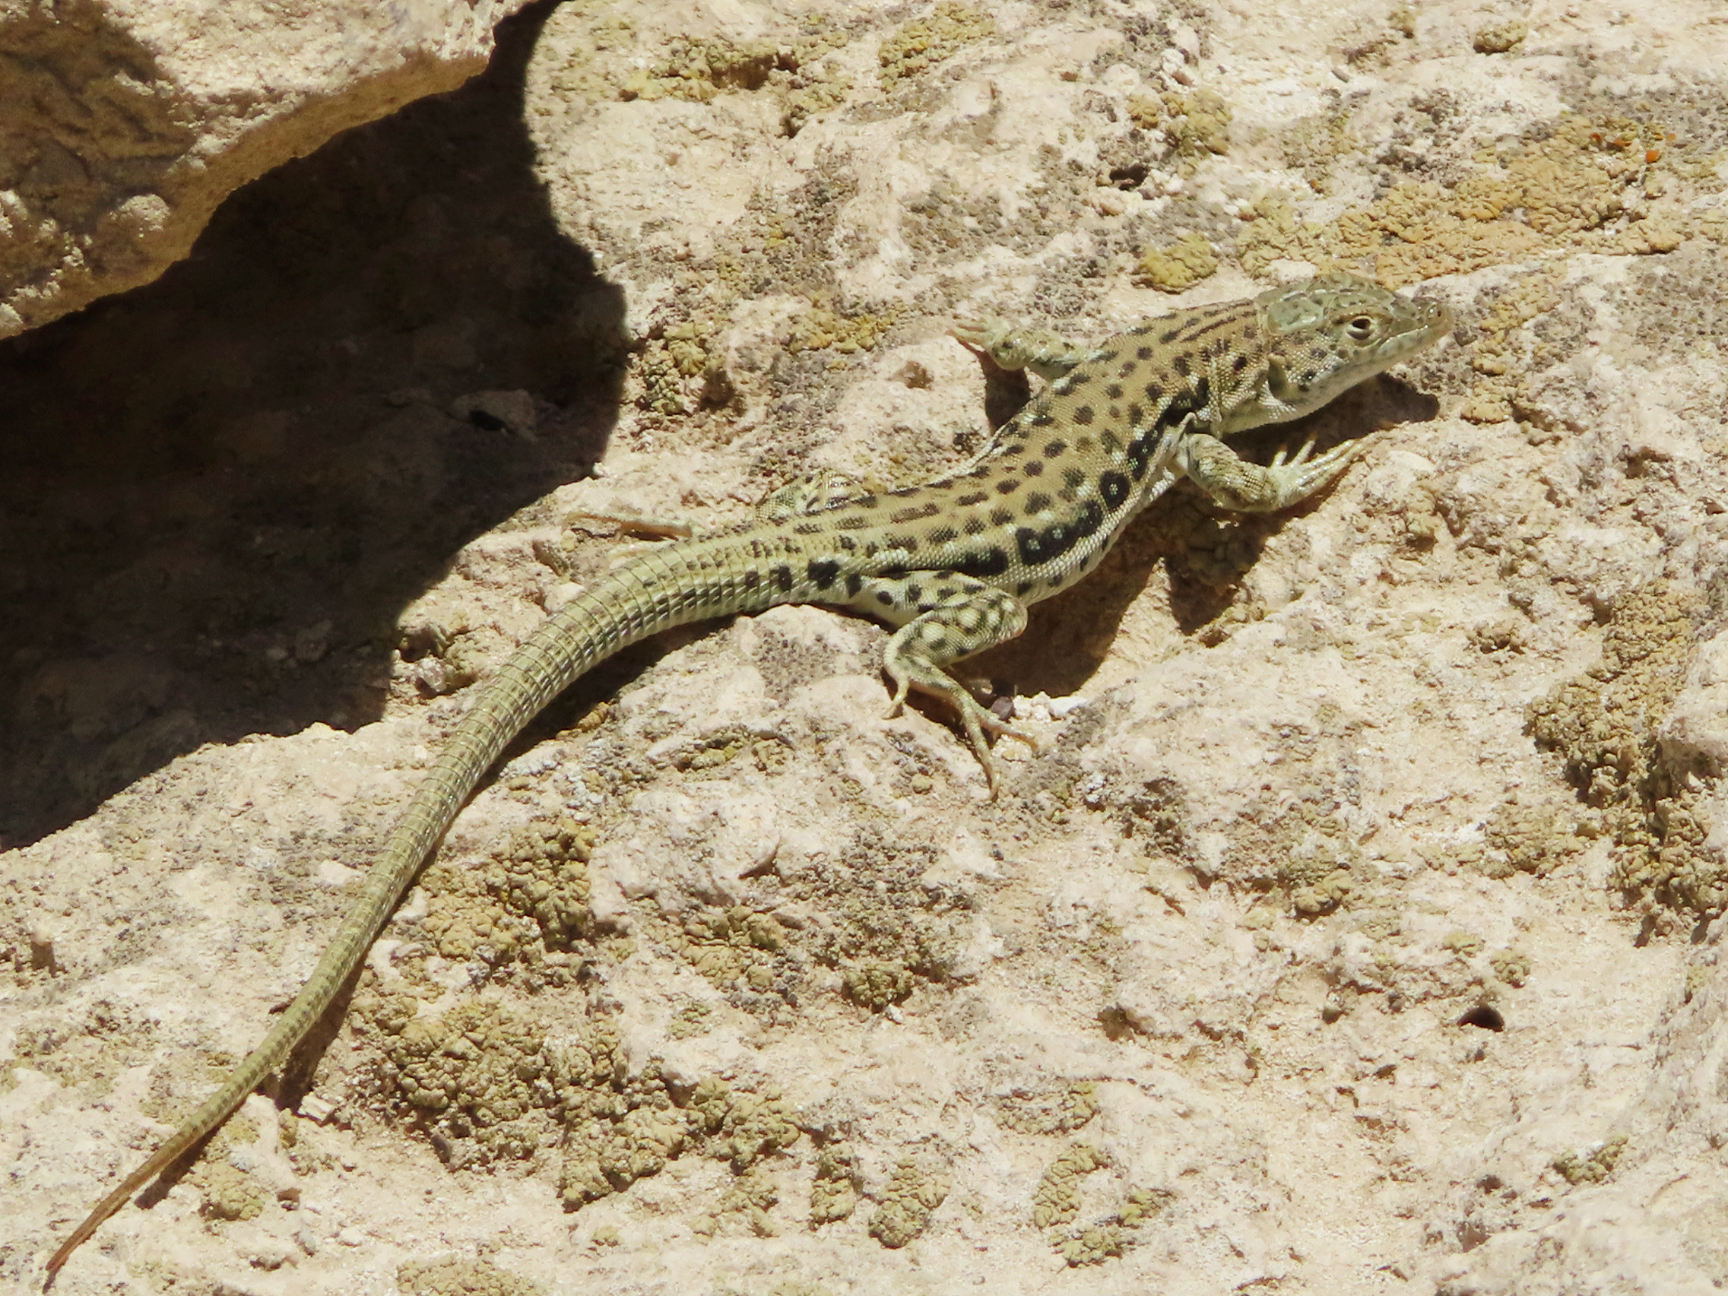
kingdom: Animalia
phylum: Chordata
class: Squamata
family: Lacertidae
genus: Eremias
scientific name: Eremias velox
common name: Central asian racerunner
